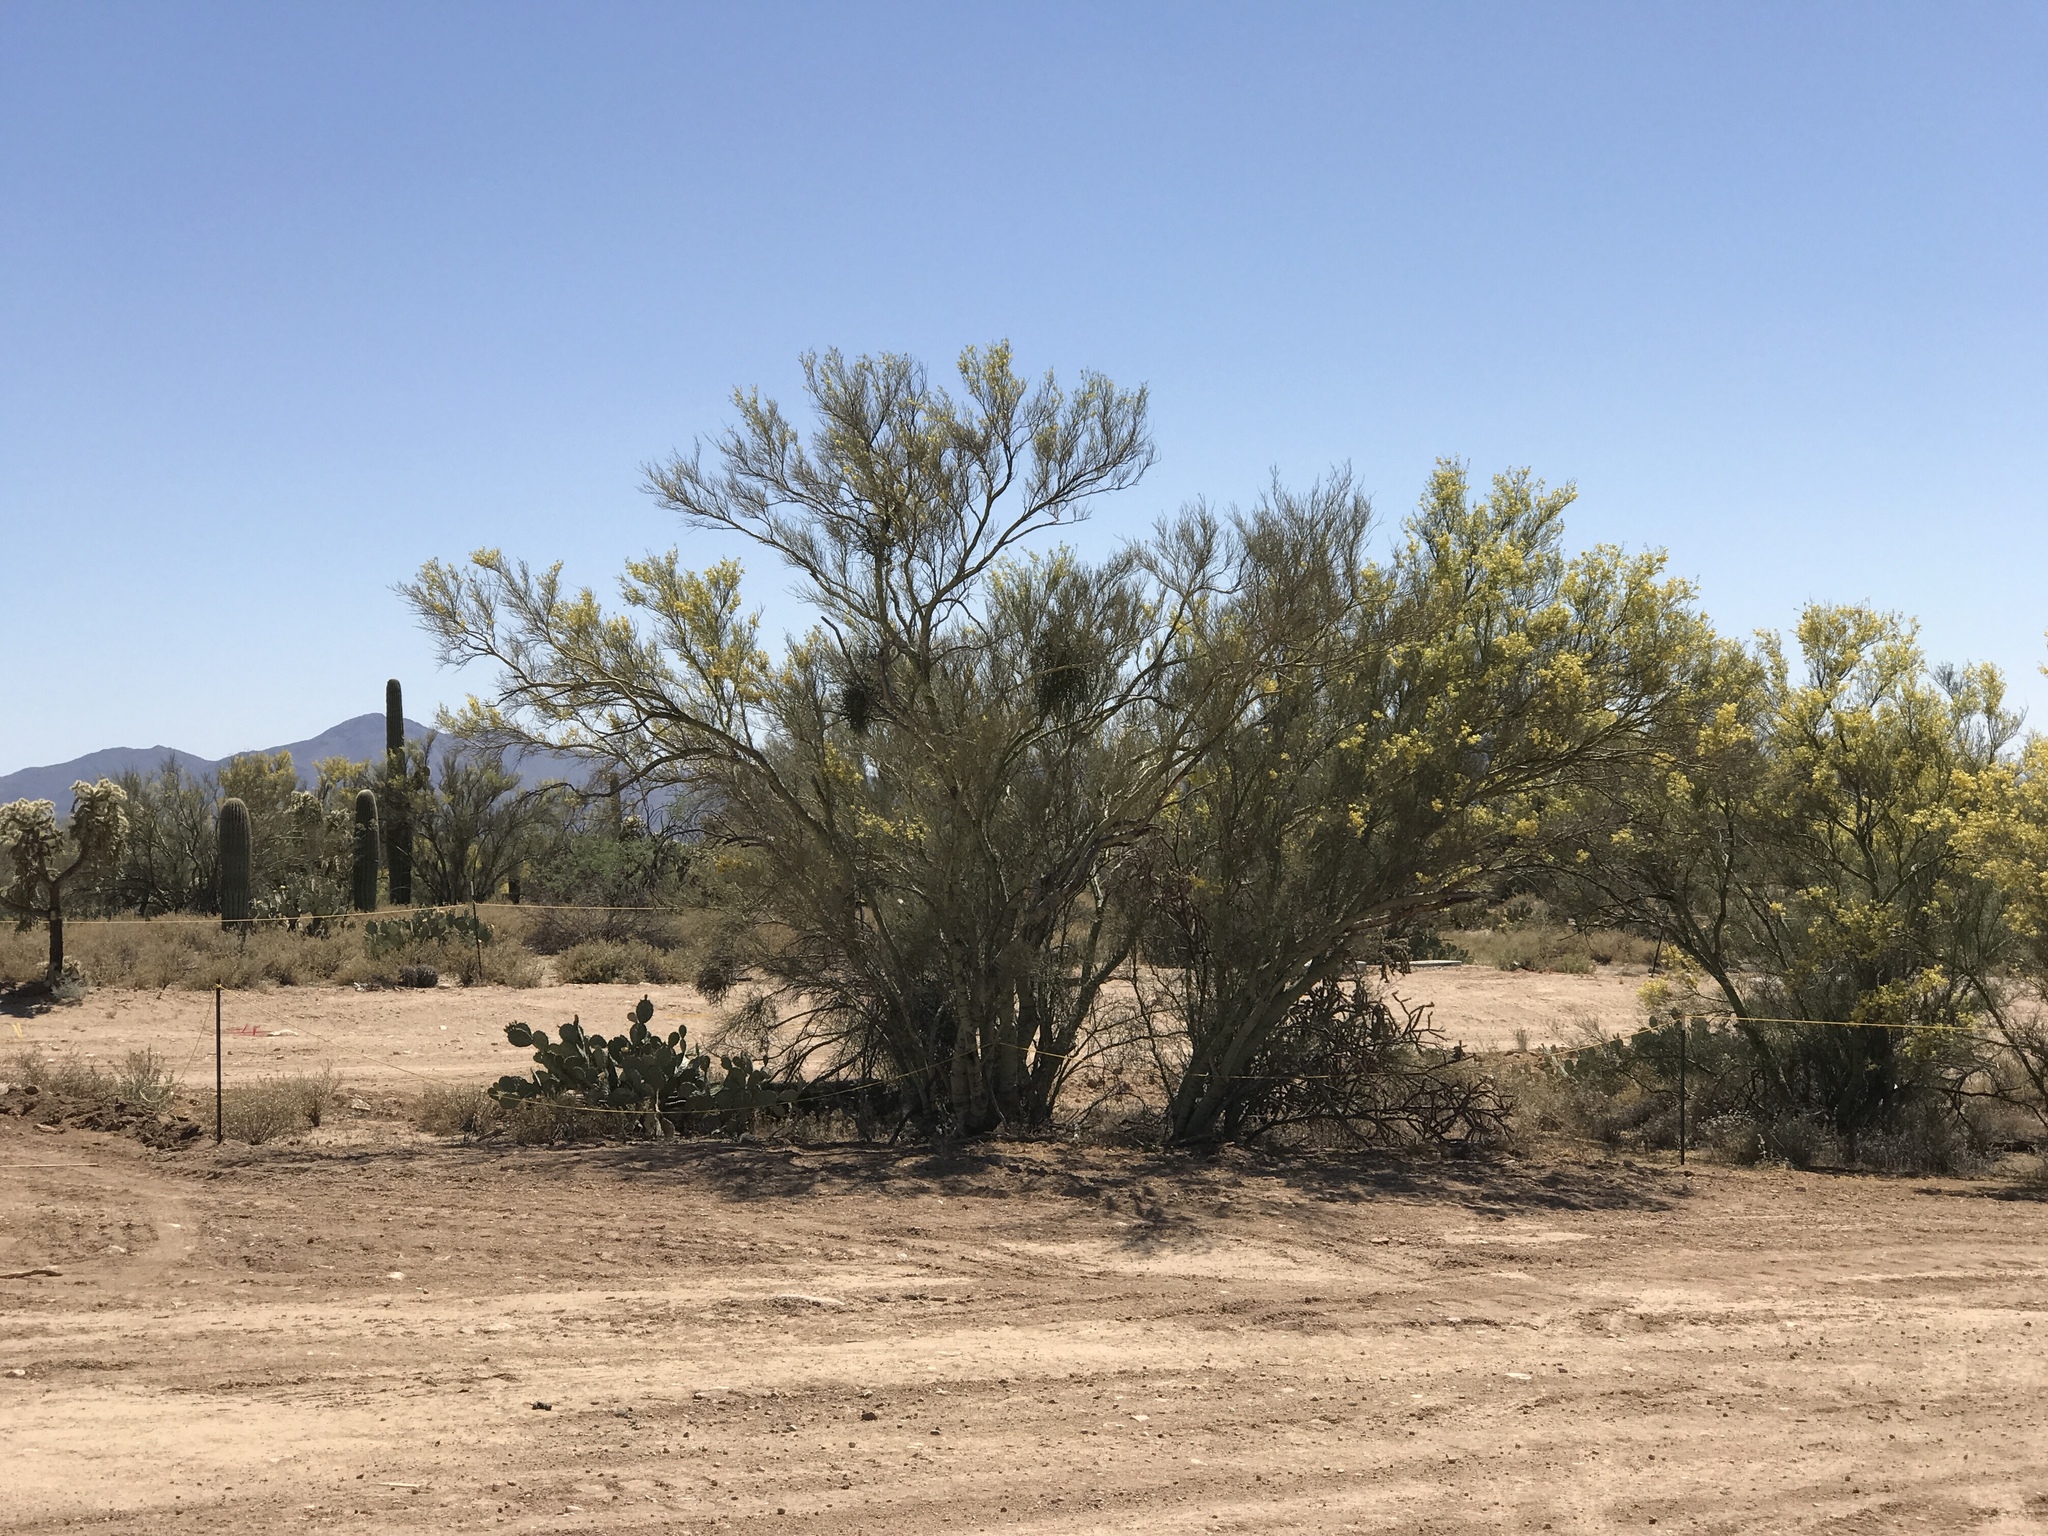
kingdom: Plantae
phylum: Tracheophyta
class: Magnoliopsida
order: Fabales
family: Fabaceae
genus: Parkinsonia
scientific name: Parkinsonia microphylla
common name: Yellow paloverde
